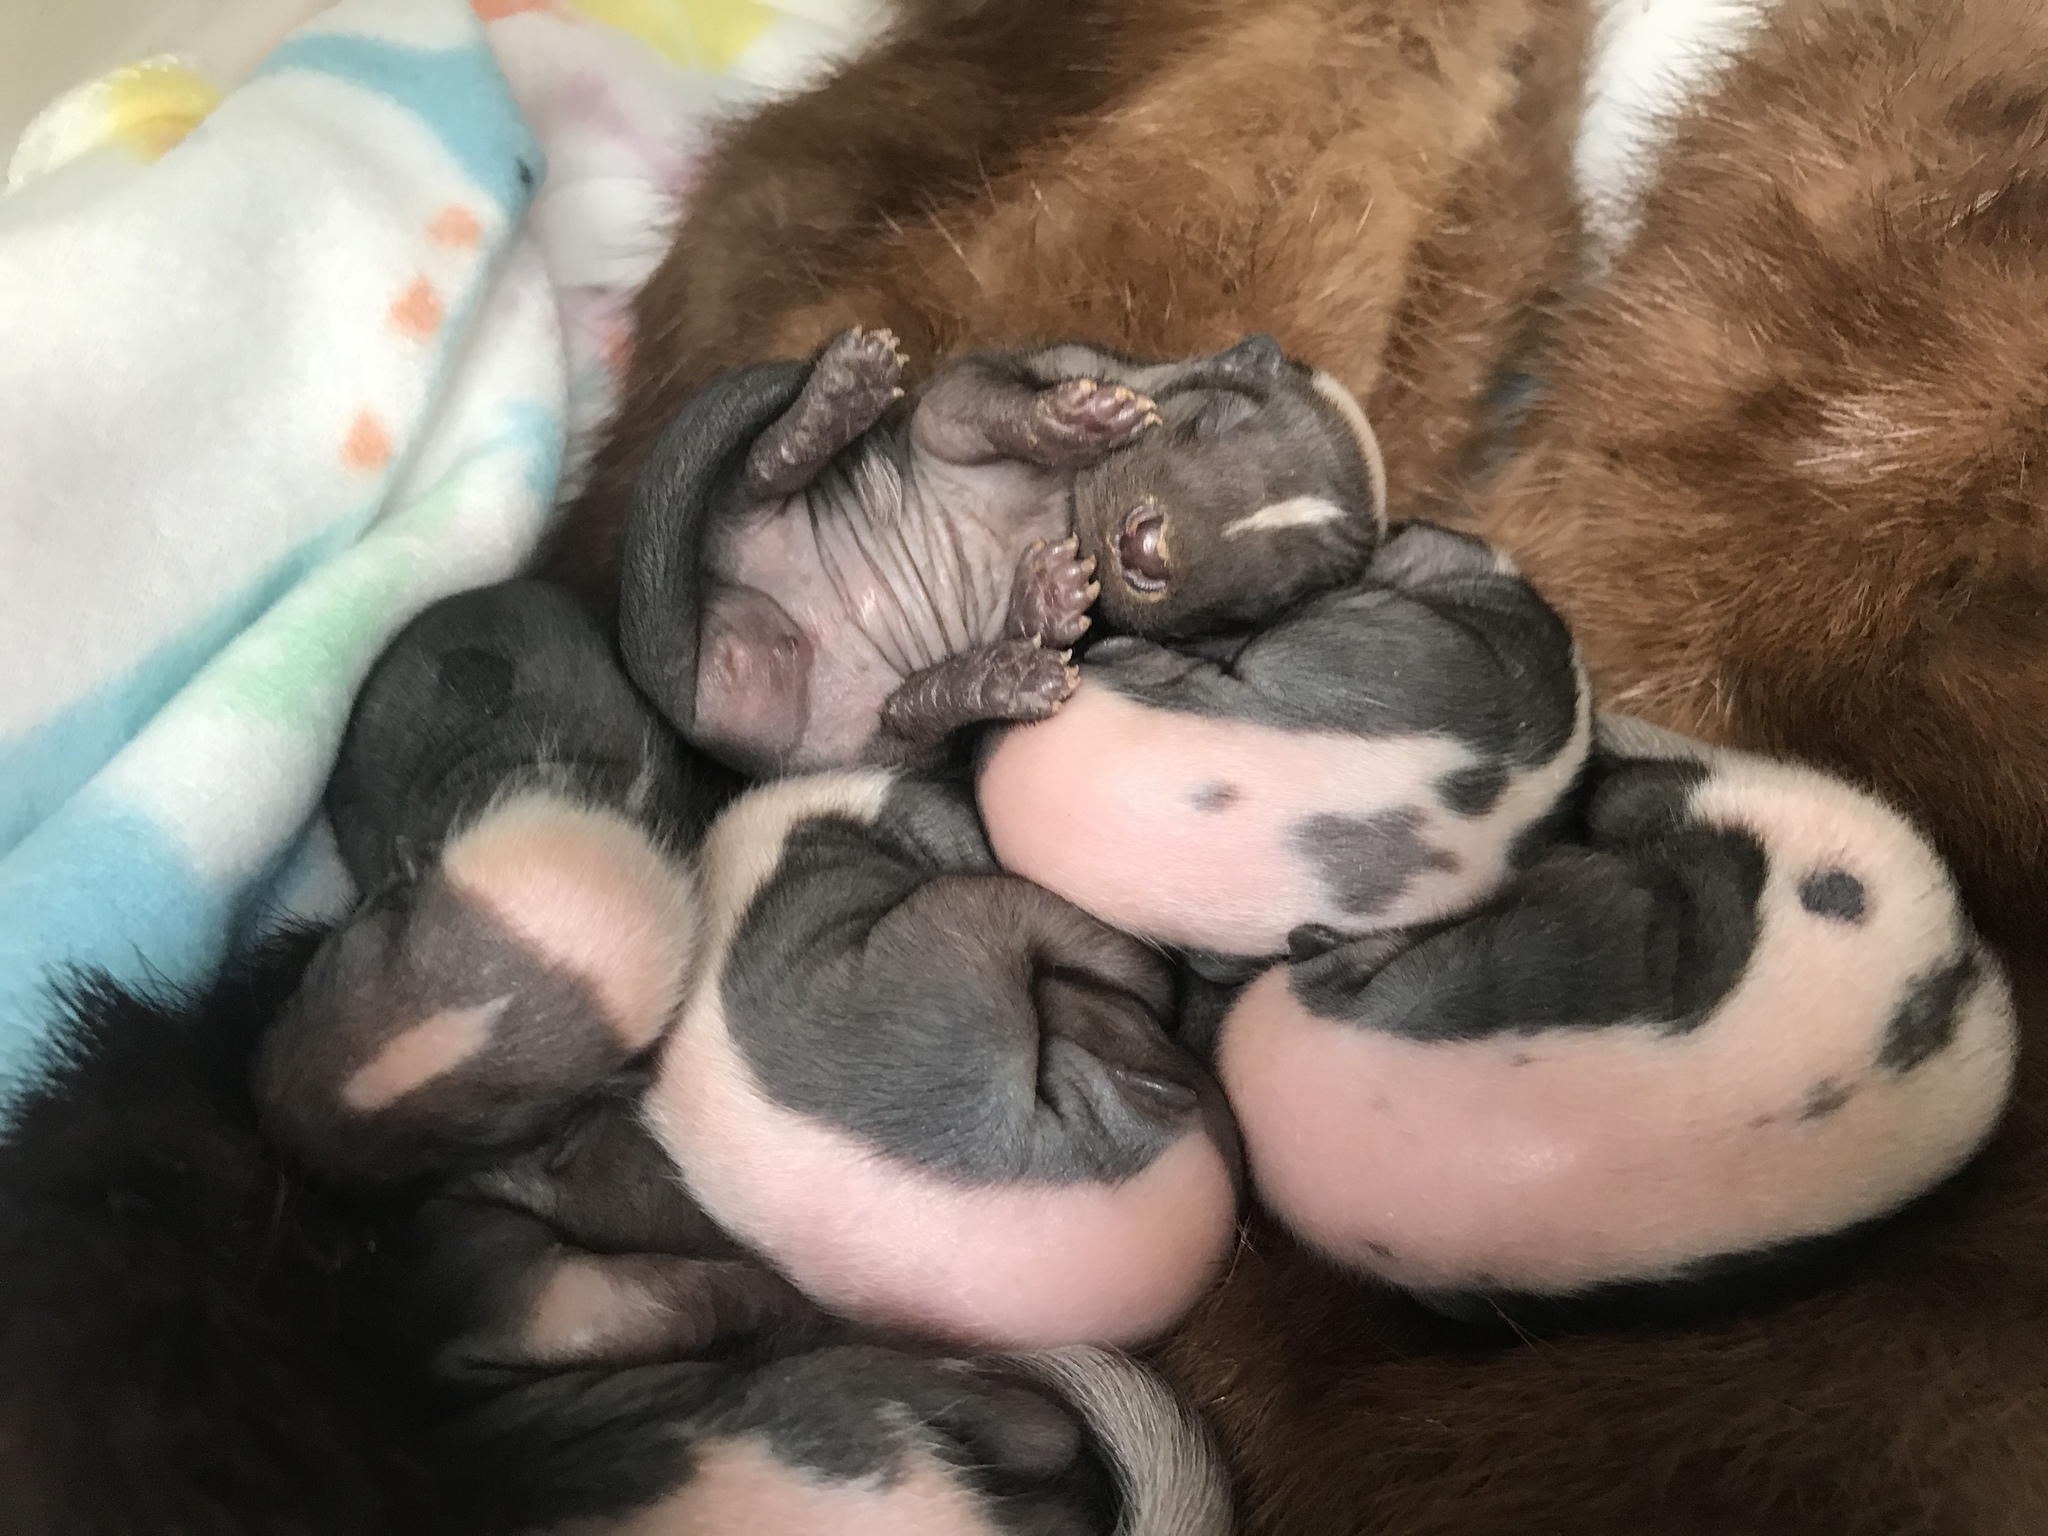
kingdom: Animalia
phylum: Chordata
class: Mammalia
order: Carnivora
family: Mephitidae
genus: Mephitis
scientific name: Mephitis mephitis
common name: Striped skunk
